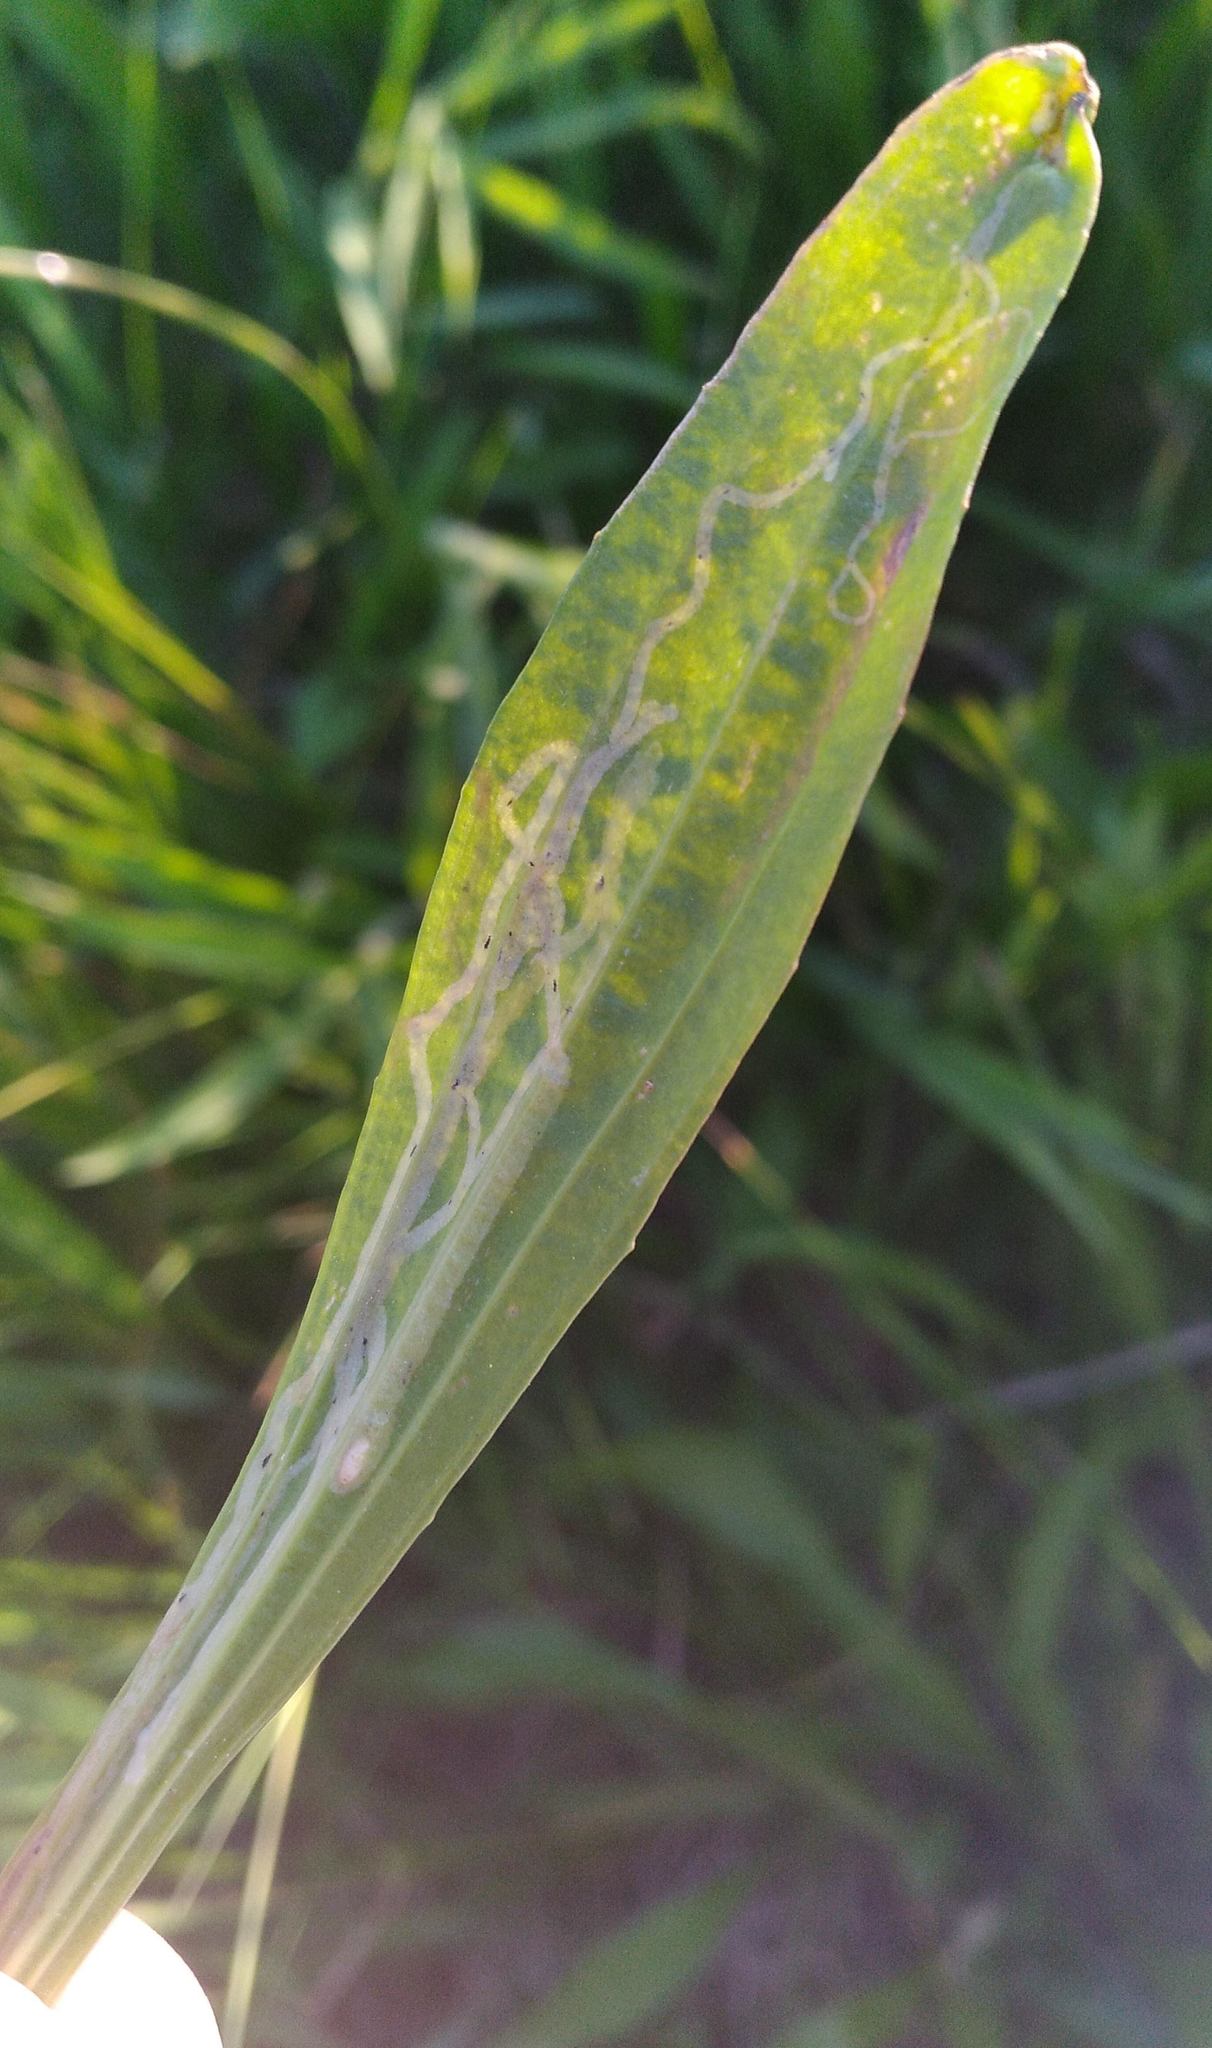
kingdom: Animalia
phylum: Arthropoda
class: Insecta
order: Diptera
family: Agromyzidae
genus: Phytomyza
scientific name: Phytomyza plantaginis
